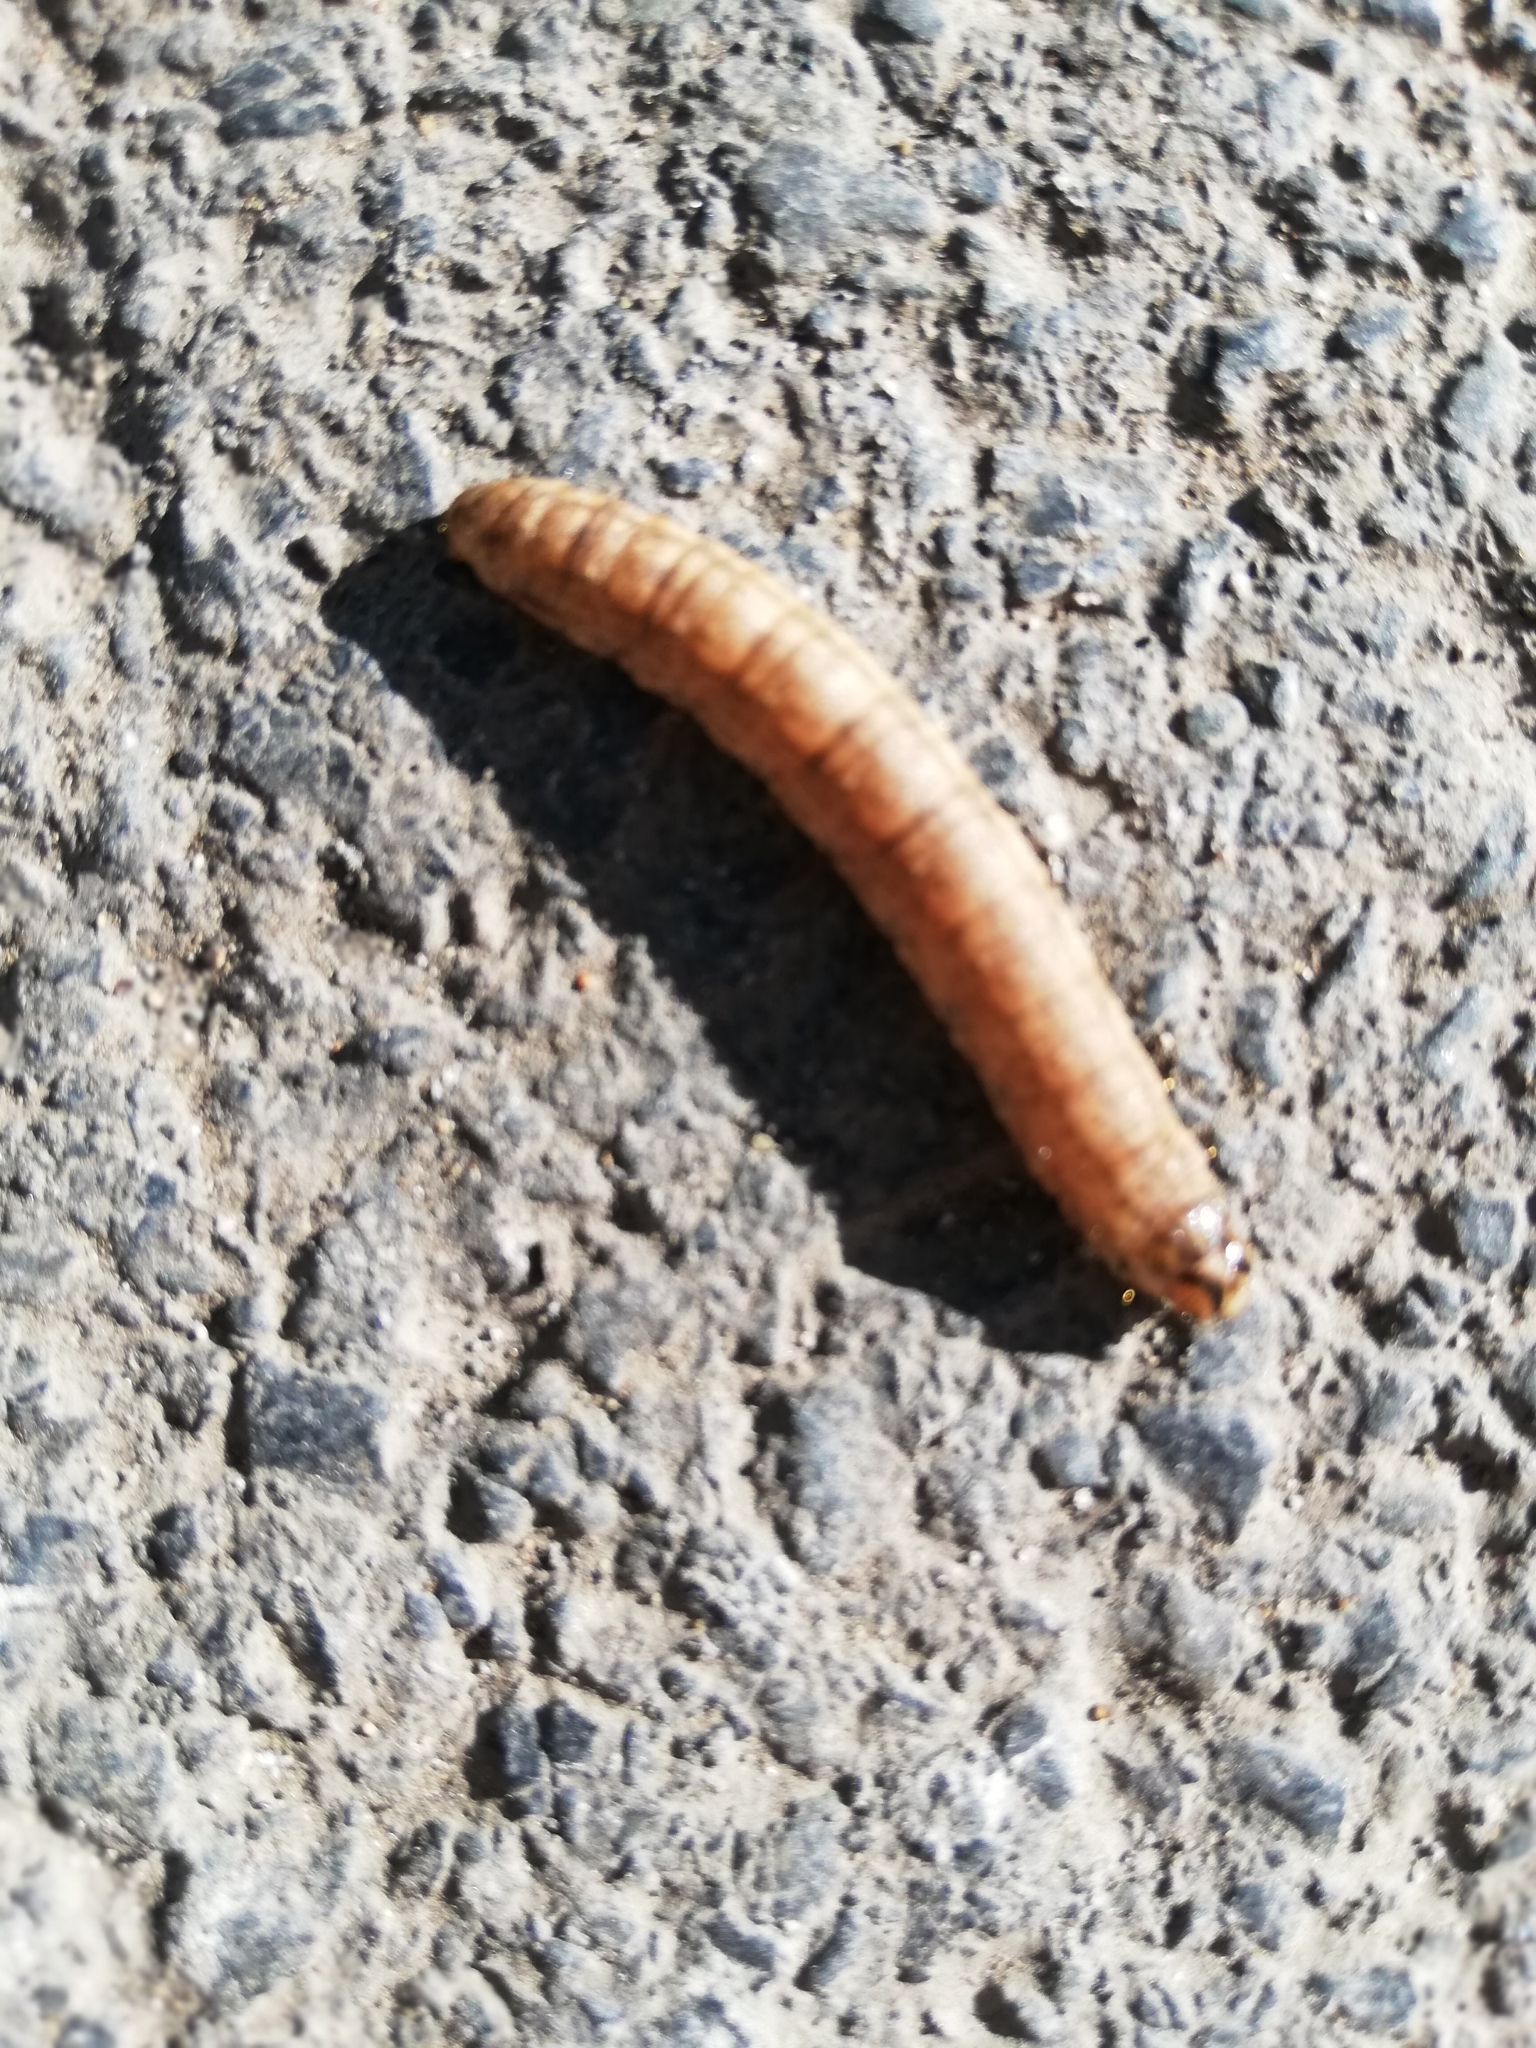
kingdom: Animalia
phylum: Arthropoda
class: Insecta
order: Lepidoptera
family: Cossidae
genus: Cossus
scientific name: Cossus cossus
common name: Goat moth
